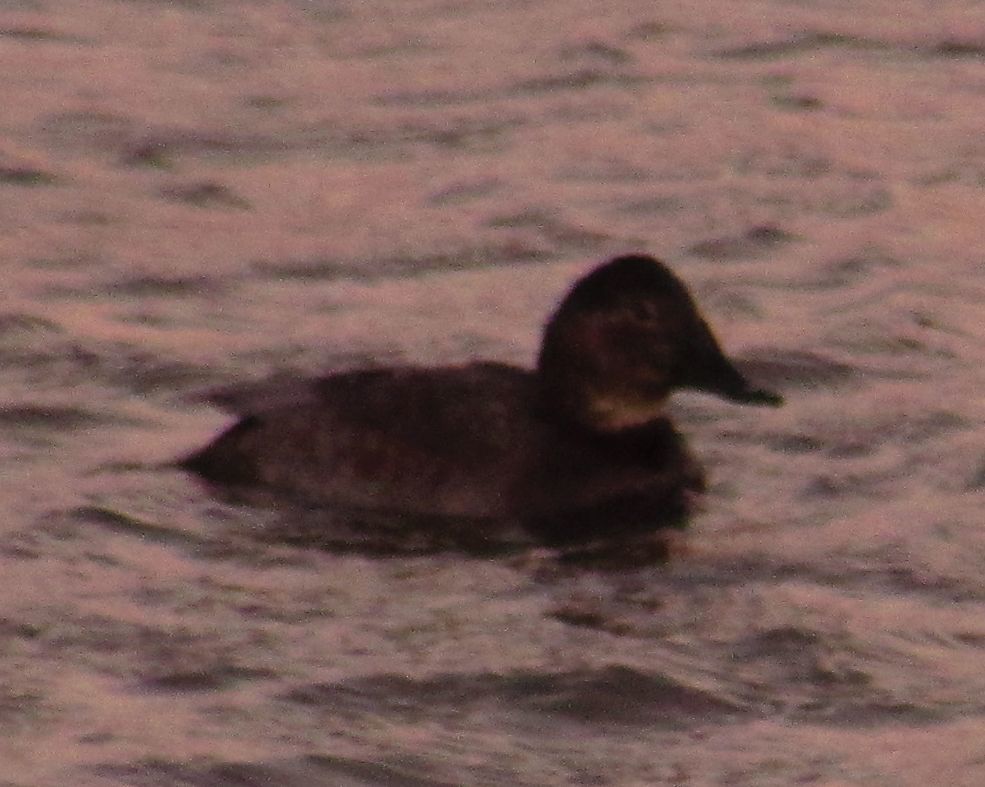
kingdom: Animalia
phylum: Chordata
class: Aves
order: Anseriformes
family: Anatidae
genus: Aythya
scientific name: Aythya ferina
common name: Common pochard
